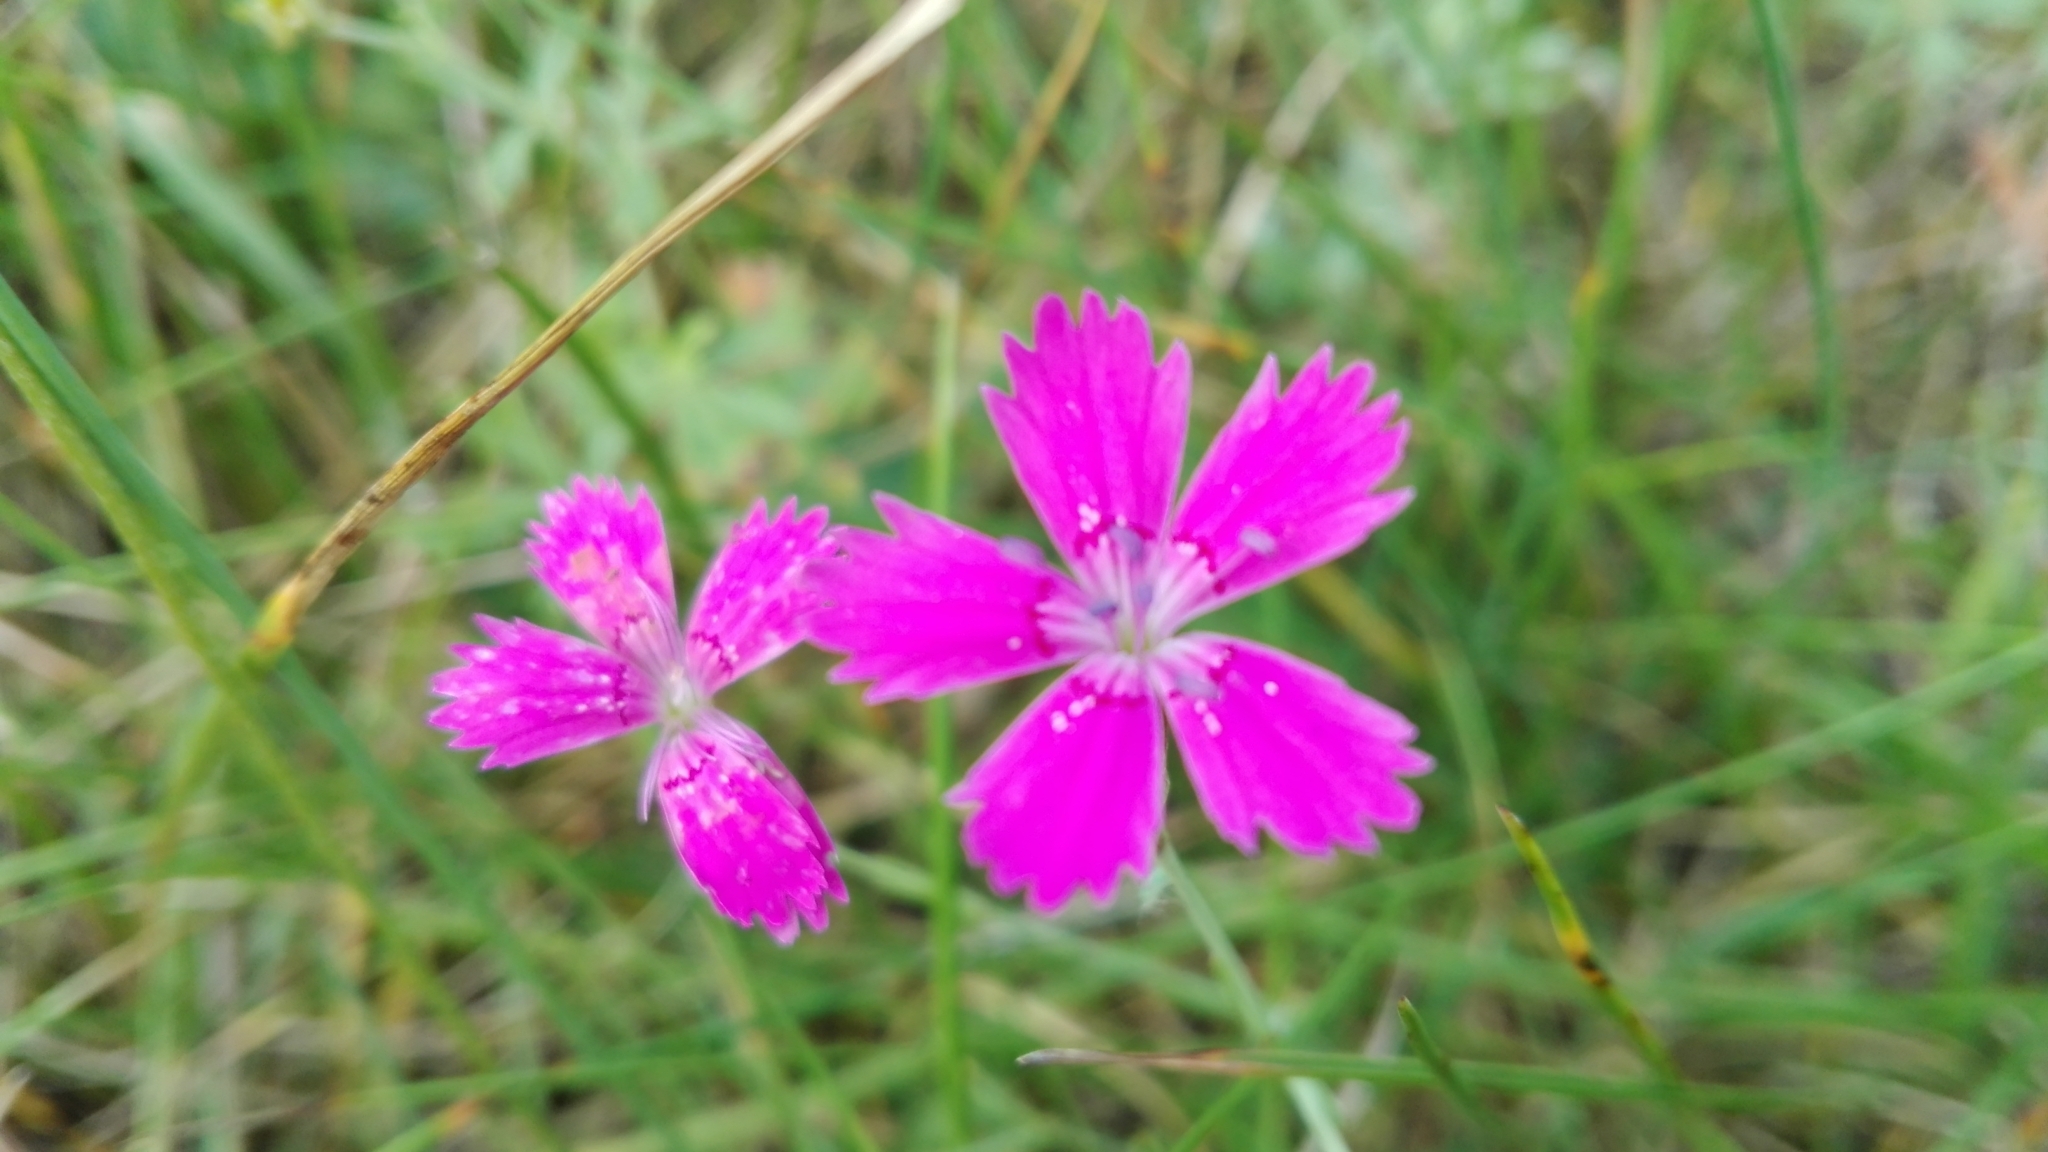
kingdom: Plantae
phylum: Tracheophyta
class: Magnoliopsida
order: Caryophyllales
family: Caryophyllaceae
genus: Dianthus
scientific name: Dianthus deltoides
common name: Maiden pink
